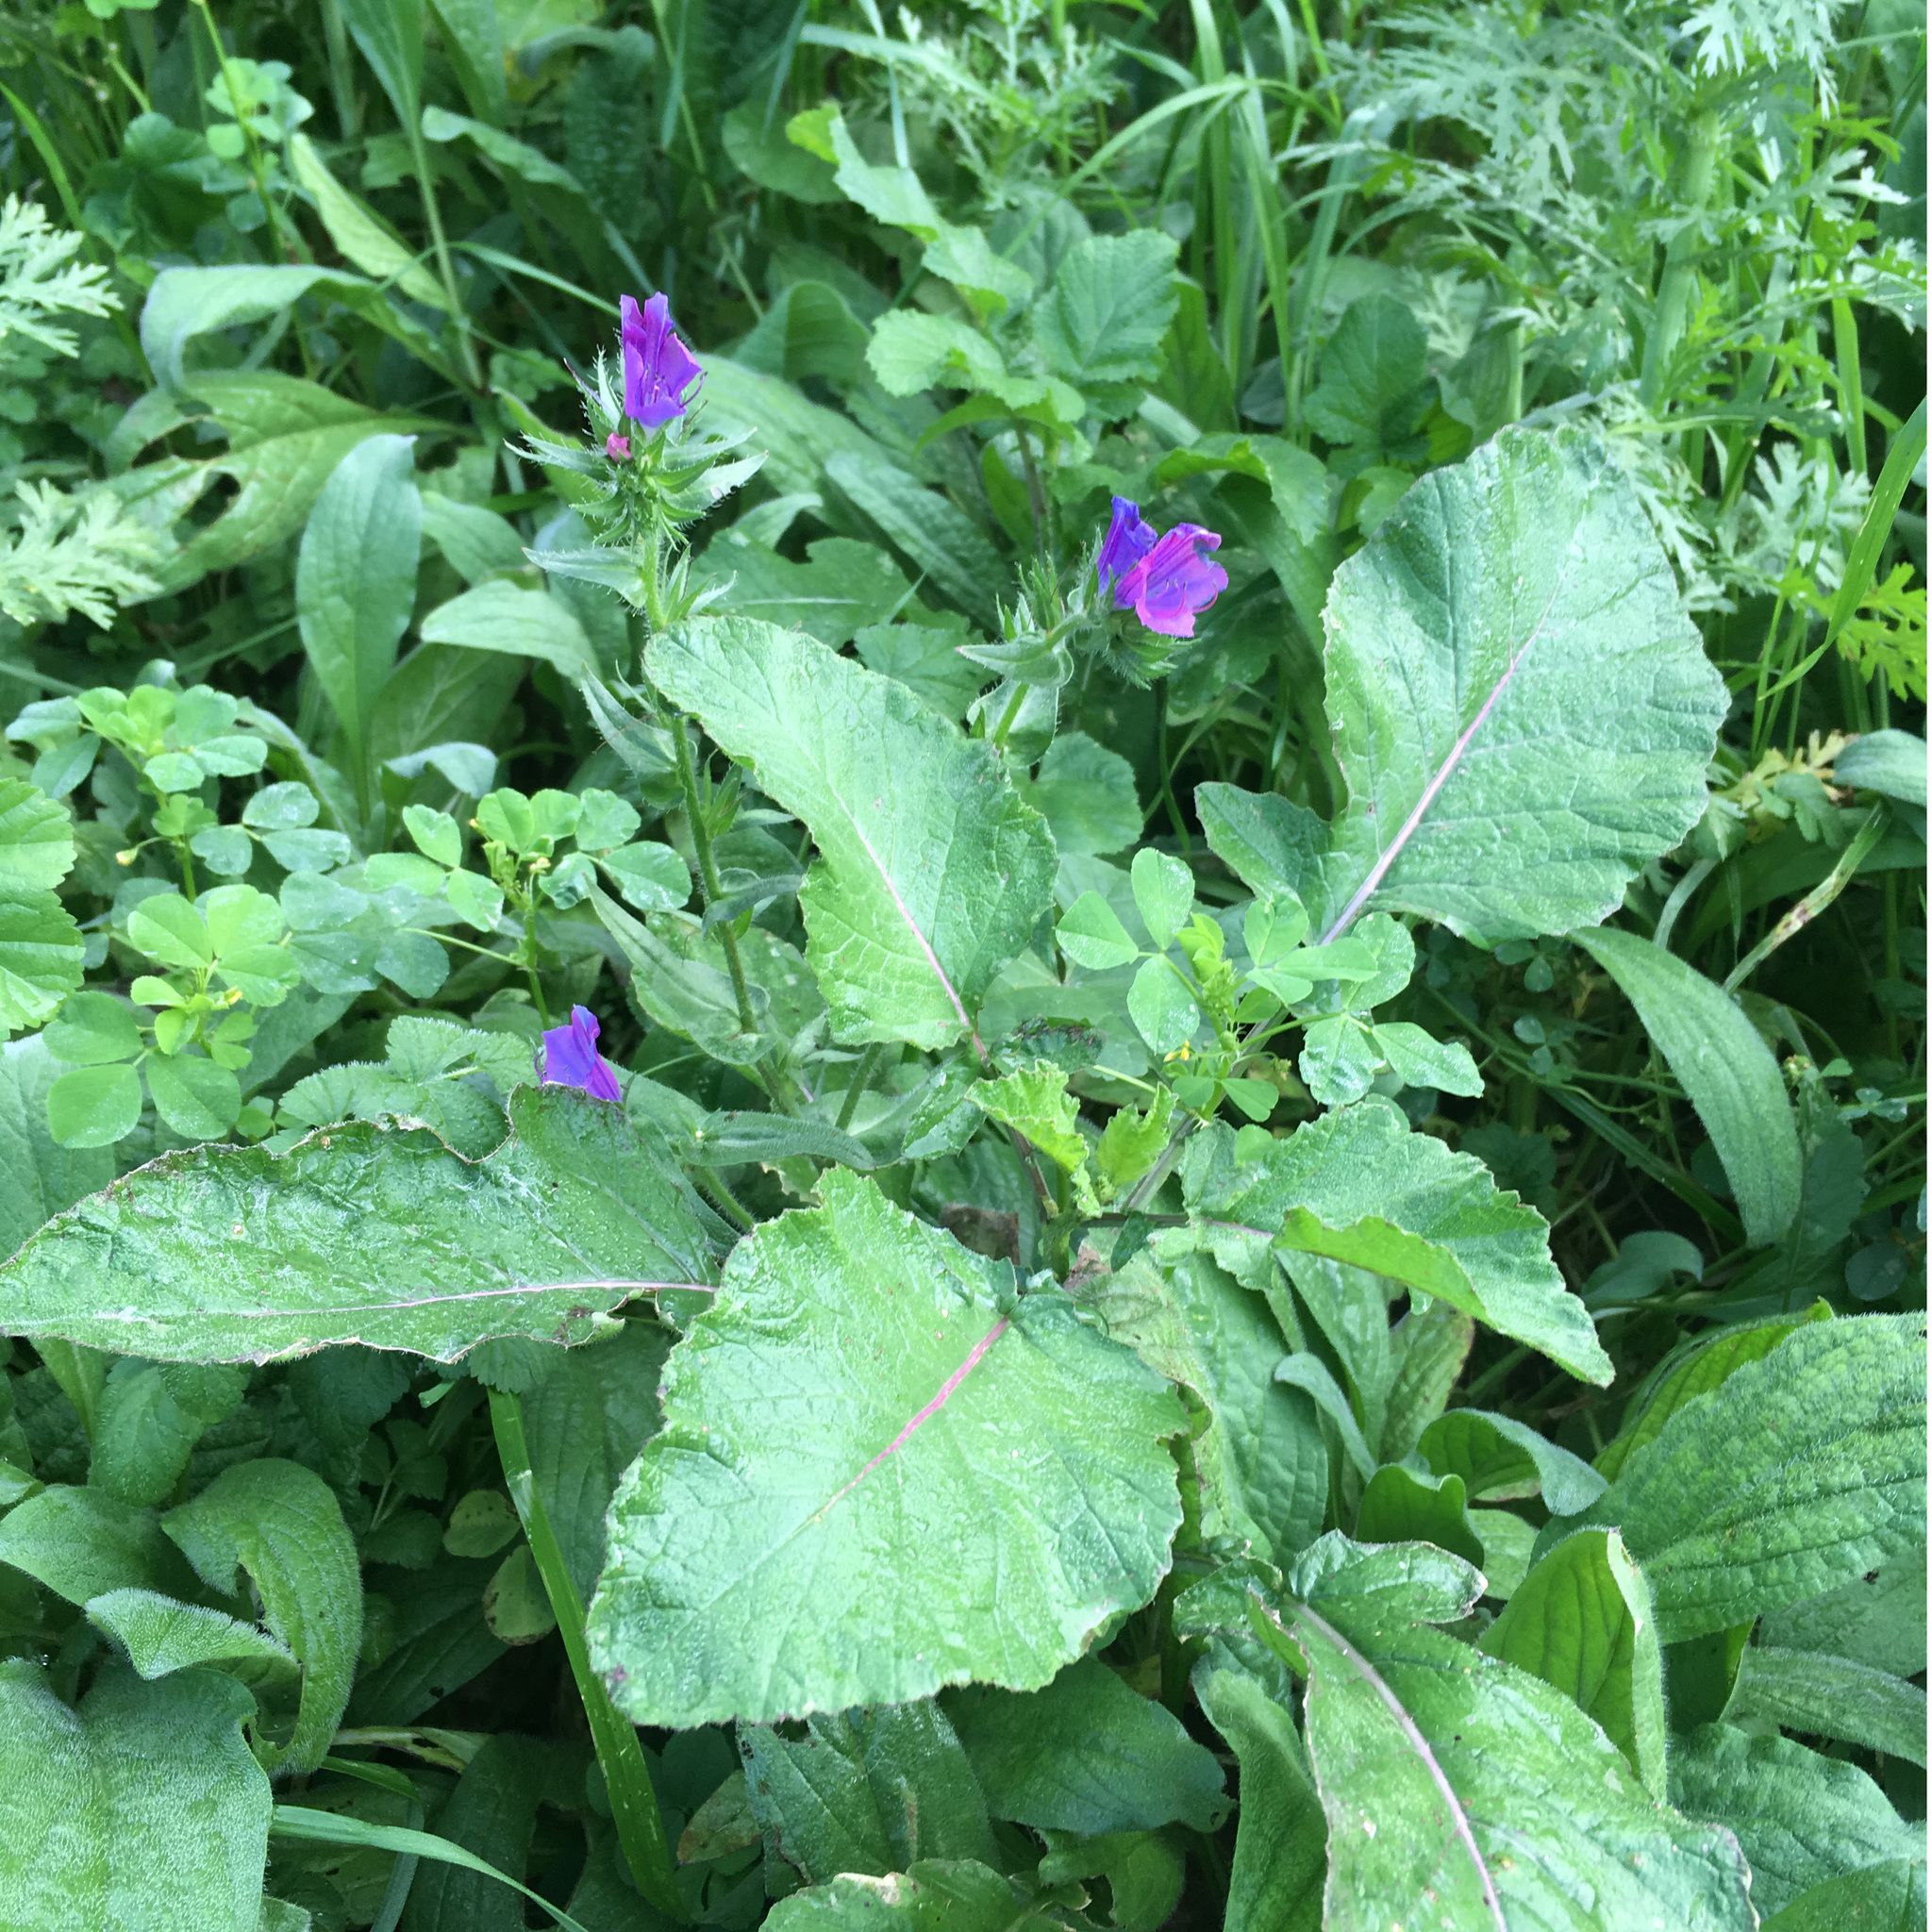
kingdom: Plantae
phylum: Tracheophyta
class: Magnoliopsida
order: Boraginales
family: Boraginaceae
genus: Echium
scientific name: Echium plantagineum
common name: Purple viper's-bugloss
